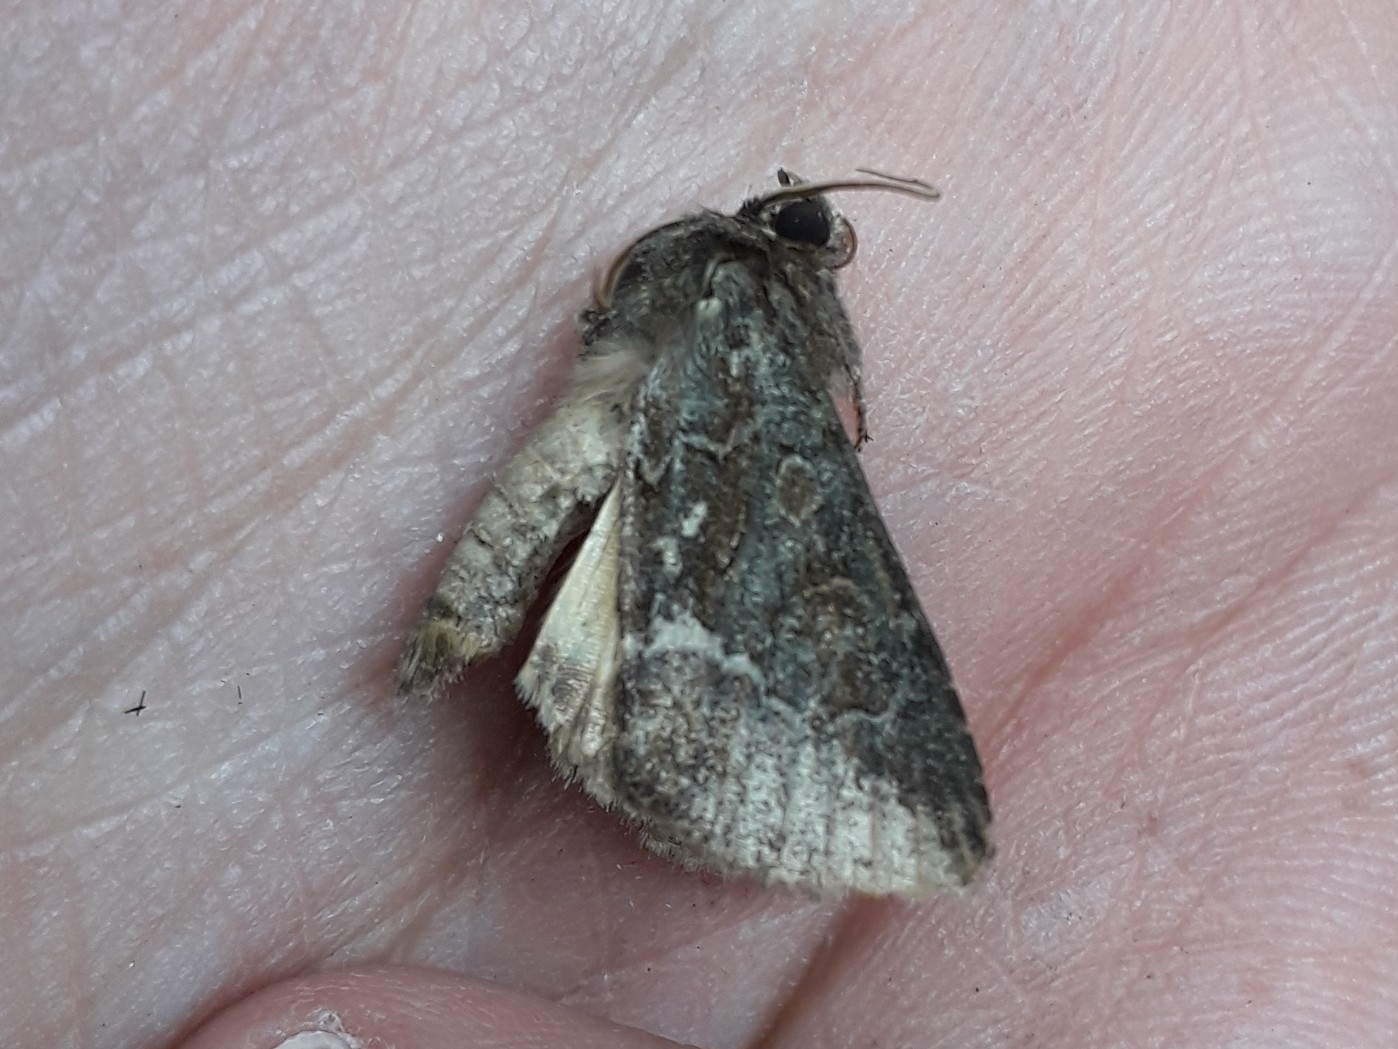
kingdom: Animalia
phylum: Arthropoda
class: Insecta
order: Lepidoptera
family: Noctuidae
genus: Thalpophila
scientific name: Thalpophila matura
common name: Straw underwing
